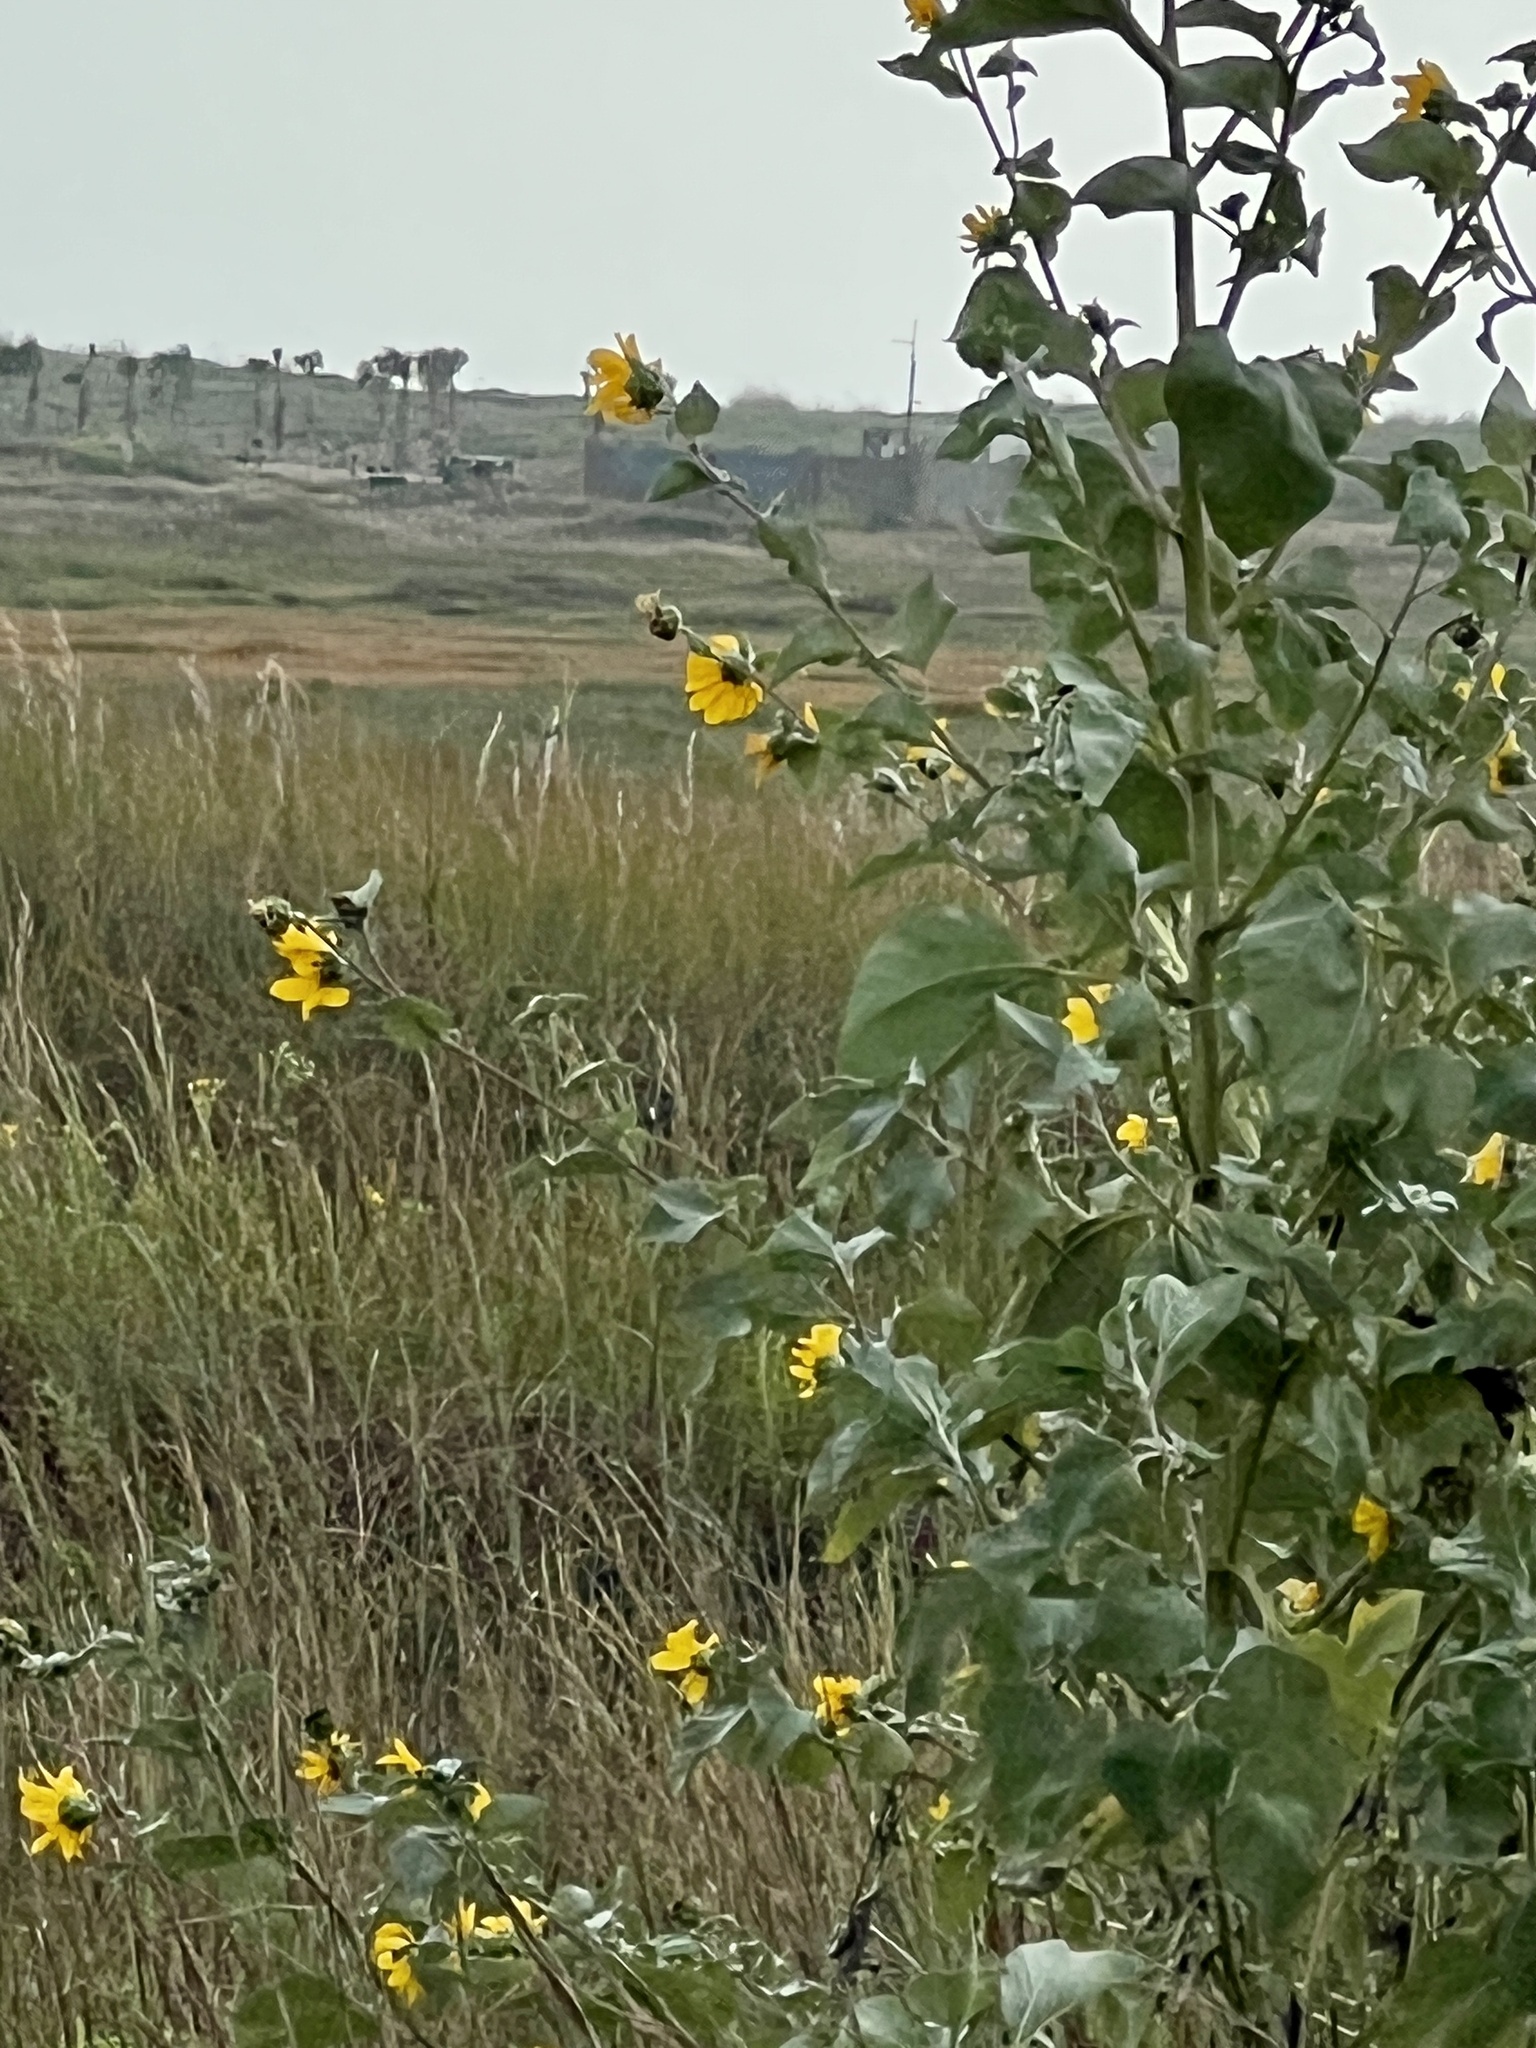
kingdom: Plantae
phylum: Tracheophyta
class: Magnoliopsida
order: Asterales
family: Asteraceae
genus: Helianthus
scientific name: Helianthus argophyllus
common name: Silverleaf sunflower
